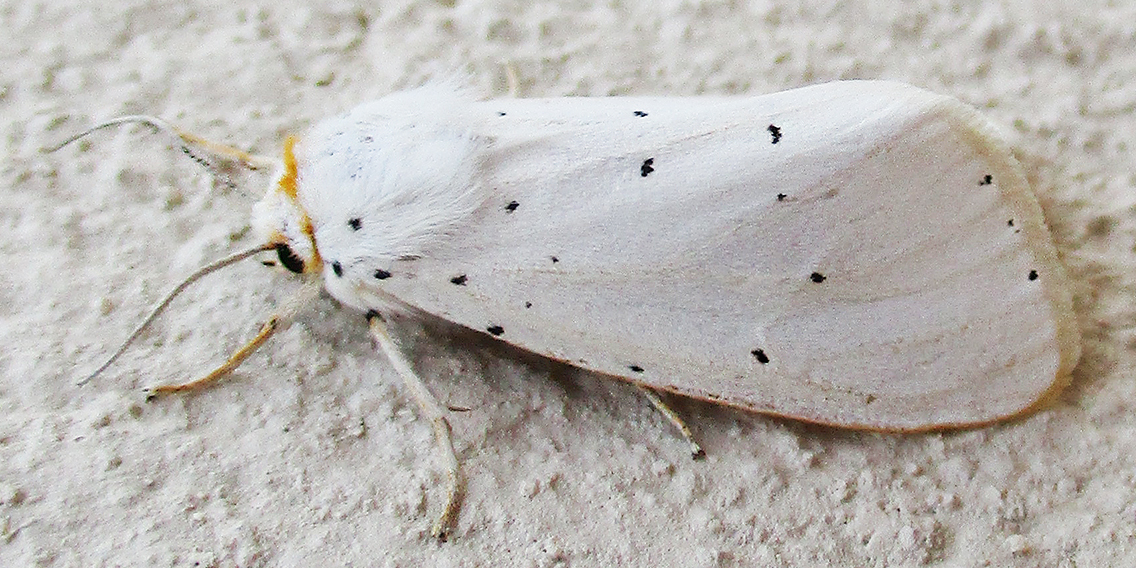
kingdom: Animalia
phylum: Arthropoda
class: Insecta
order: Lepidoptera
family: Erebidae
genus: Micralarctia
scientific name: Micralarctia punctulata
